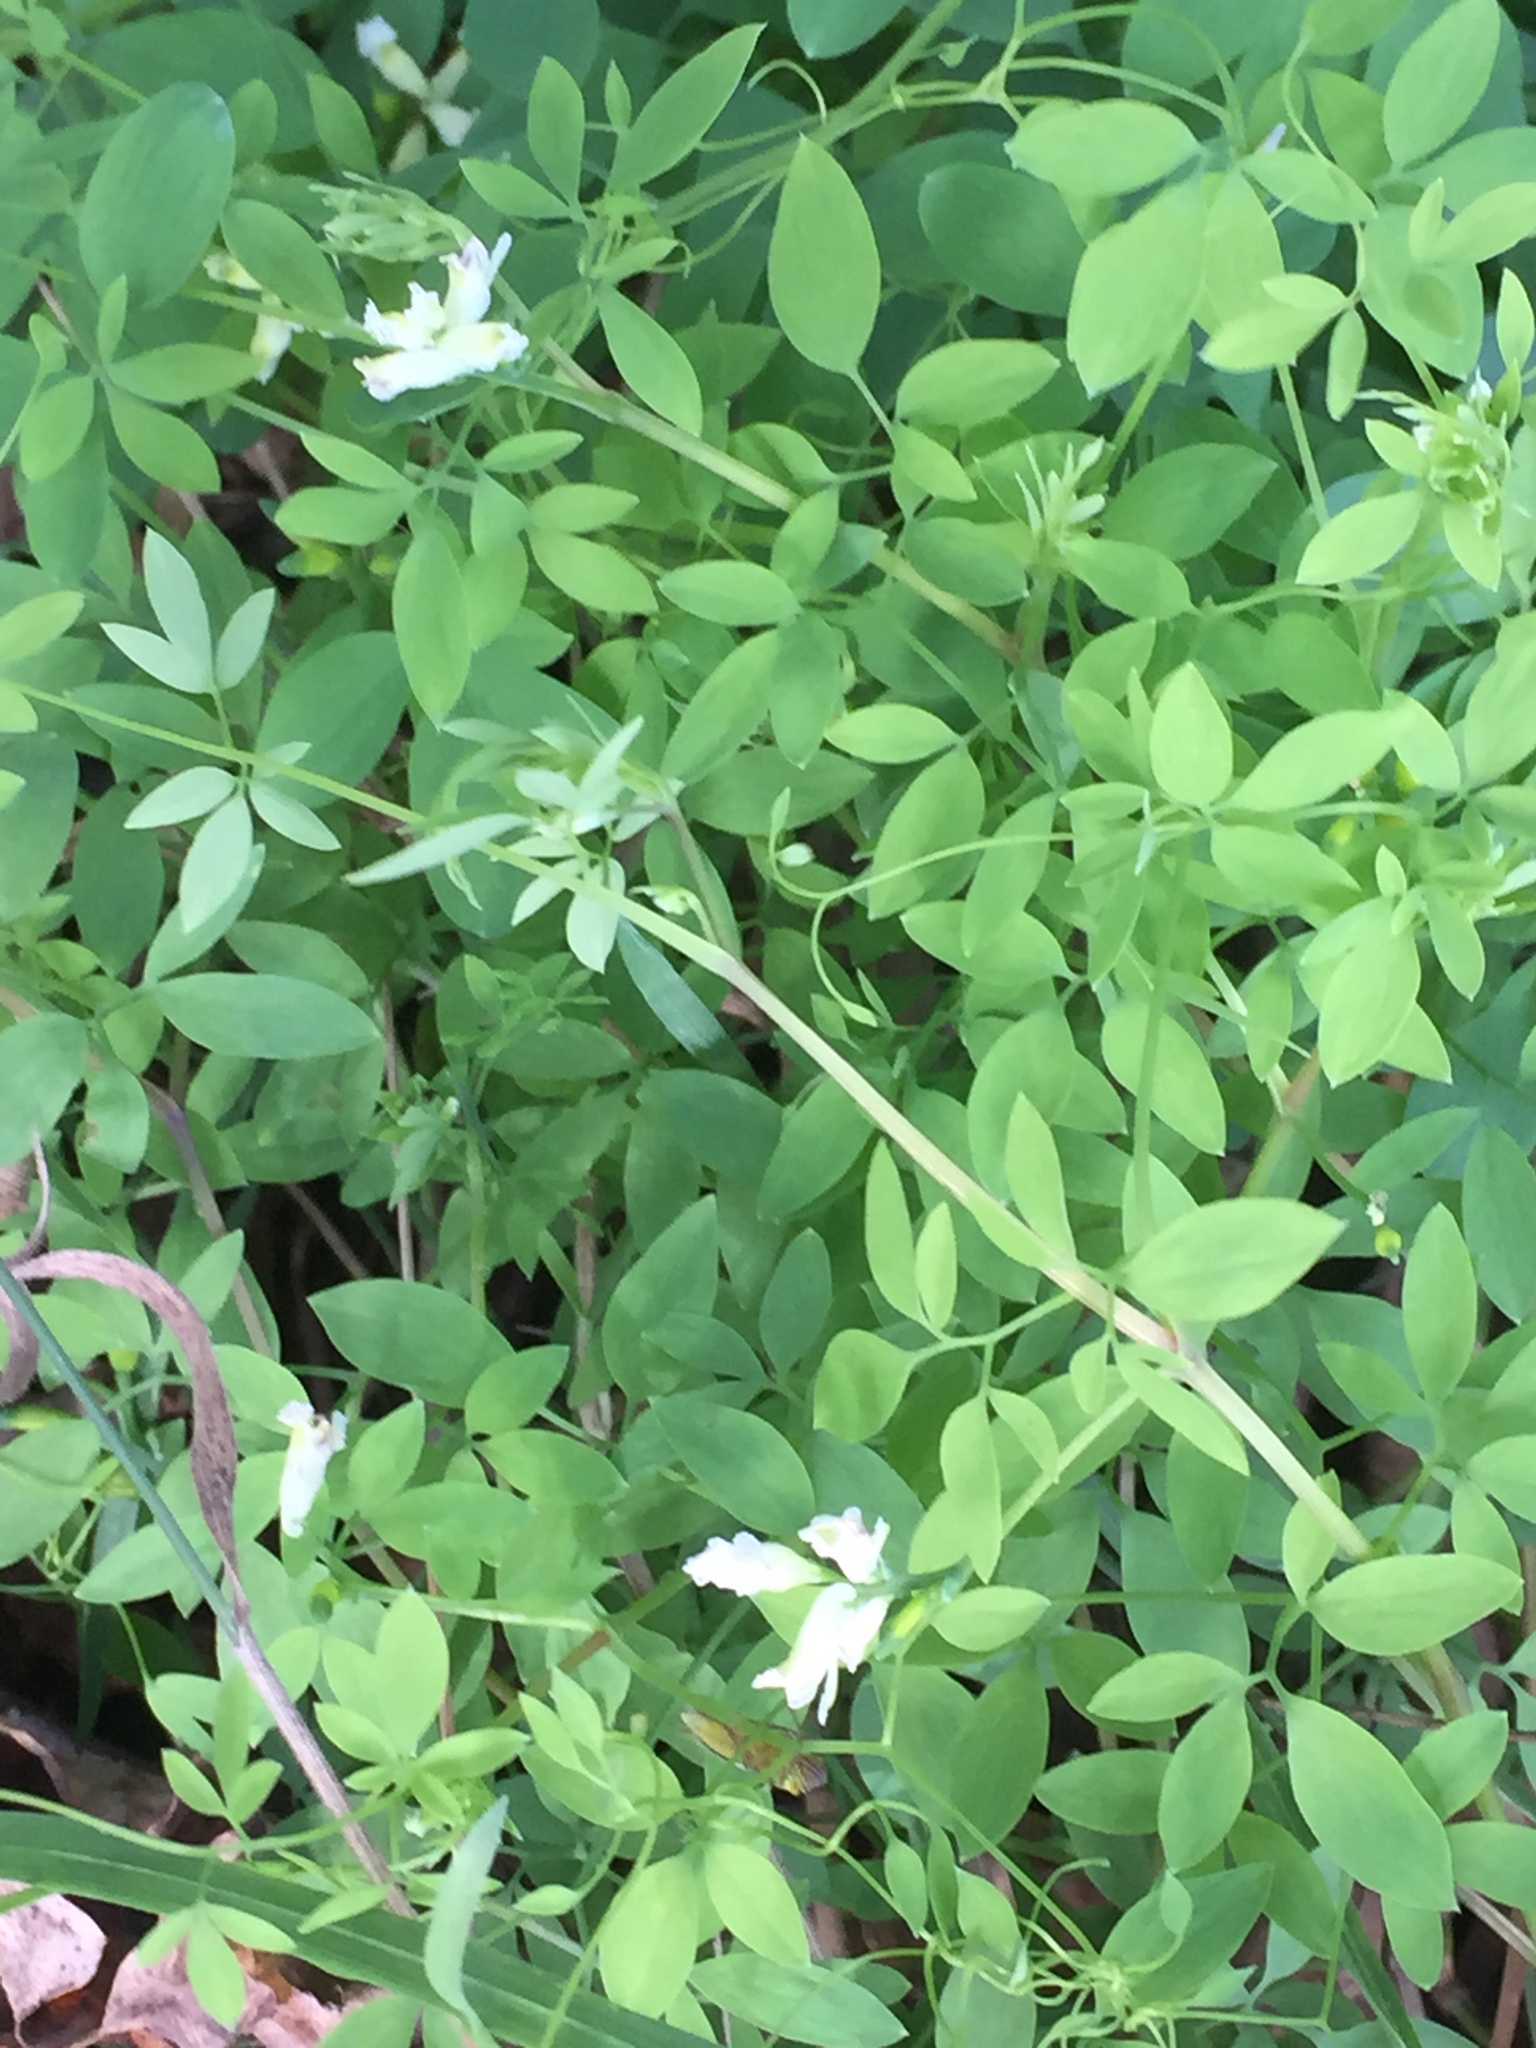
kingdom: Plantae
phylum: Tracheophyta
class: Magnoliopsida
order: Ranunculales
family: Papaveraceae
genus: Ceratocapnos
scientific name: Ceratocapnos claviculata
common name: Climbing corydalis
